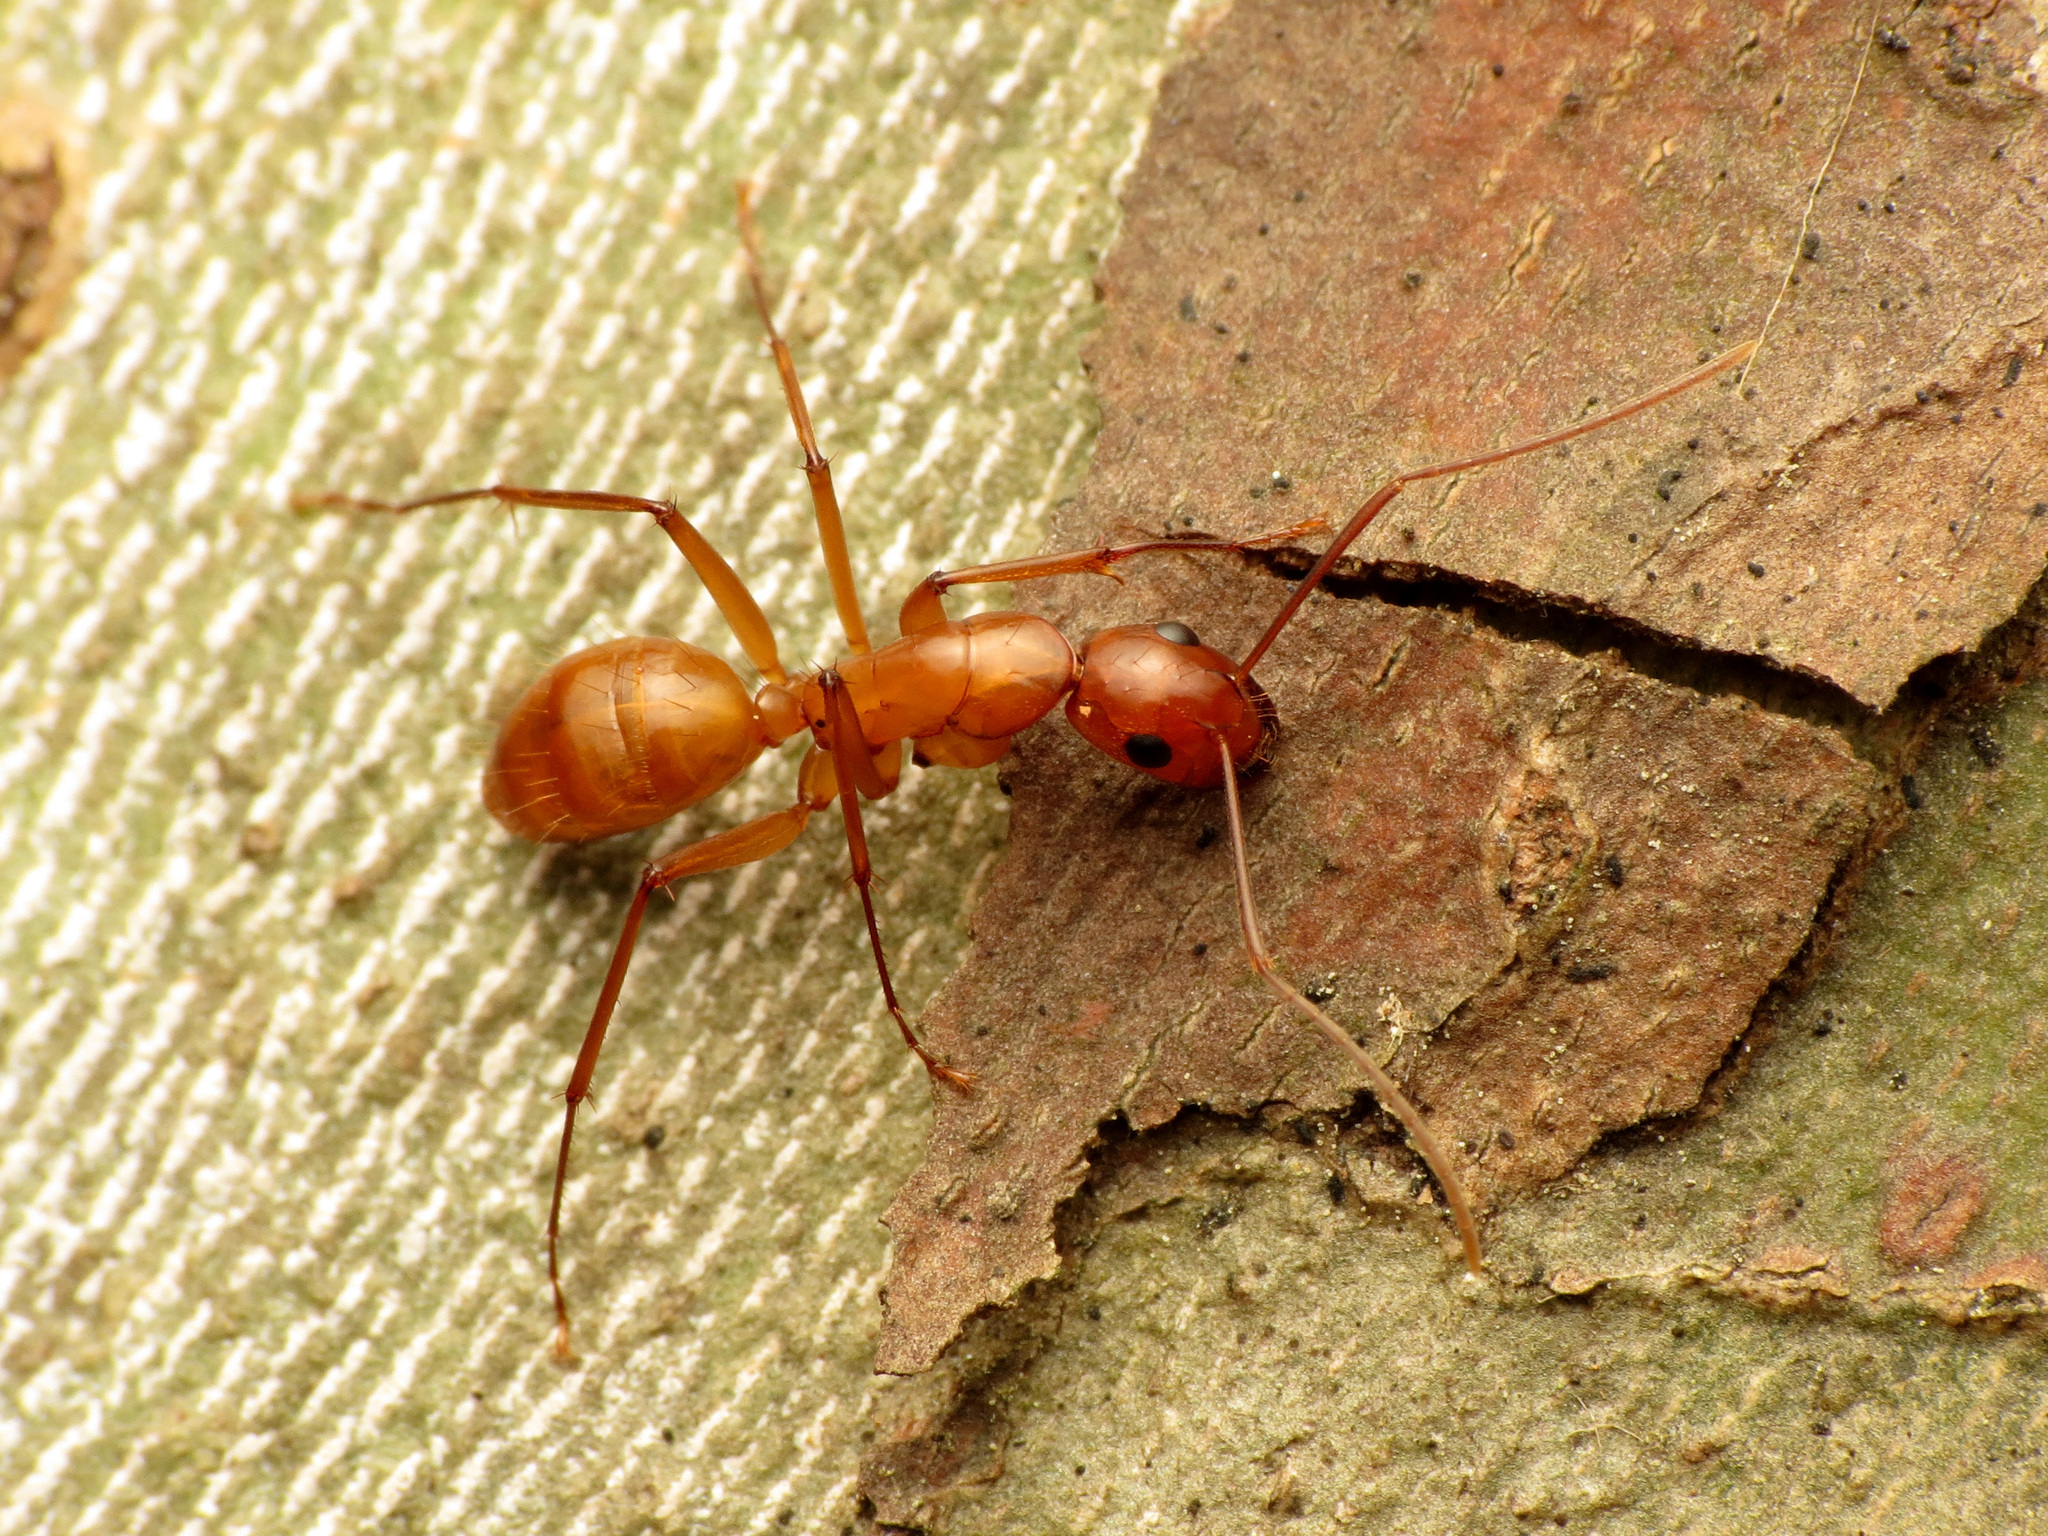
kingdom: Animalia
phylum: Arthropoda
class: Insecta
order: Hymenoptera
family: Formicidae
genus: Camponotus
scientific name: Camponotus castaneus
